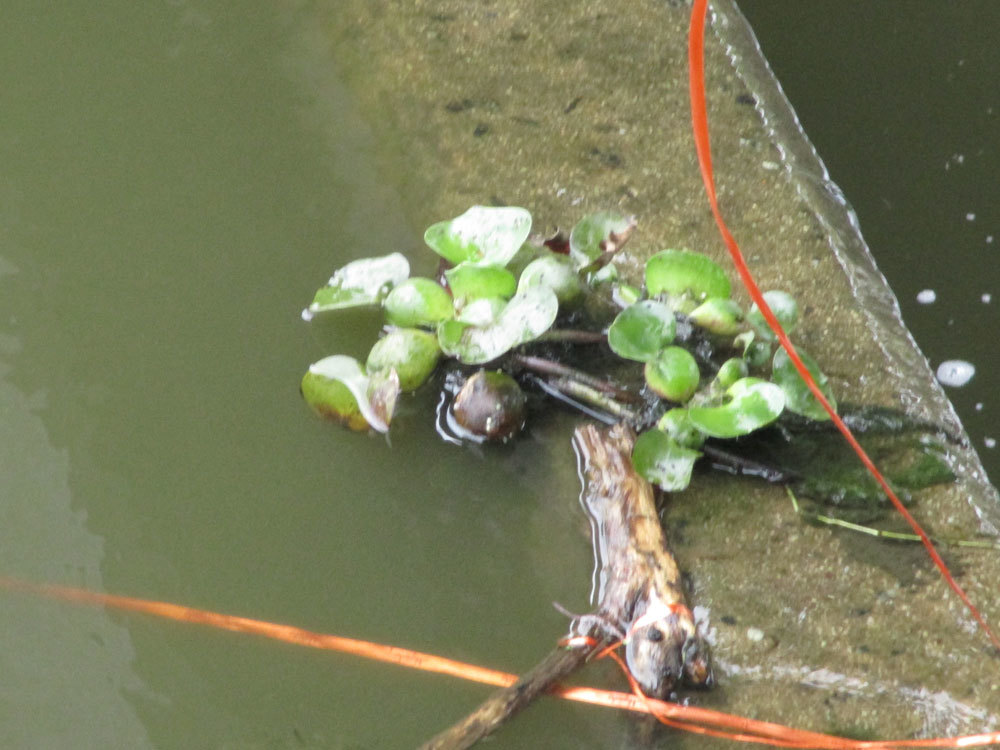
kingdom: Plantae
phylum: Tracheophyta
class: Liliopsida
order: Commelinales
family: Pontederiaceae
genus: Pontederia
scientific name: Pontederia crassipes
